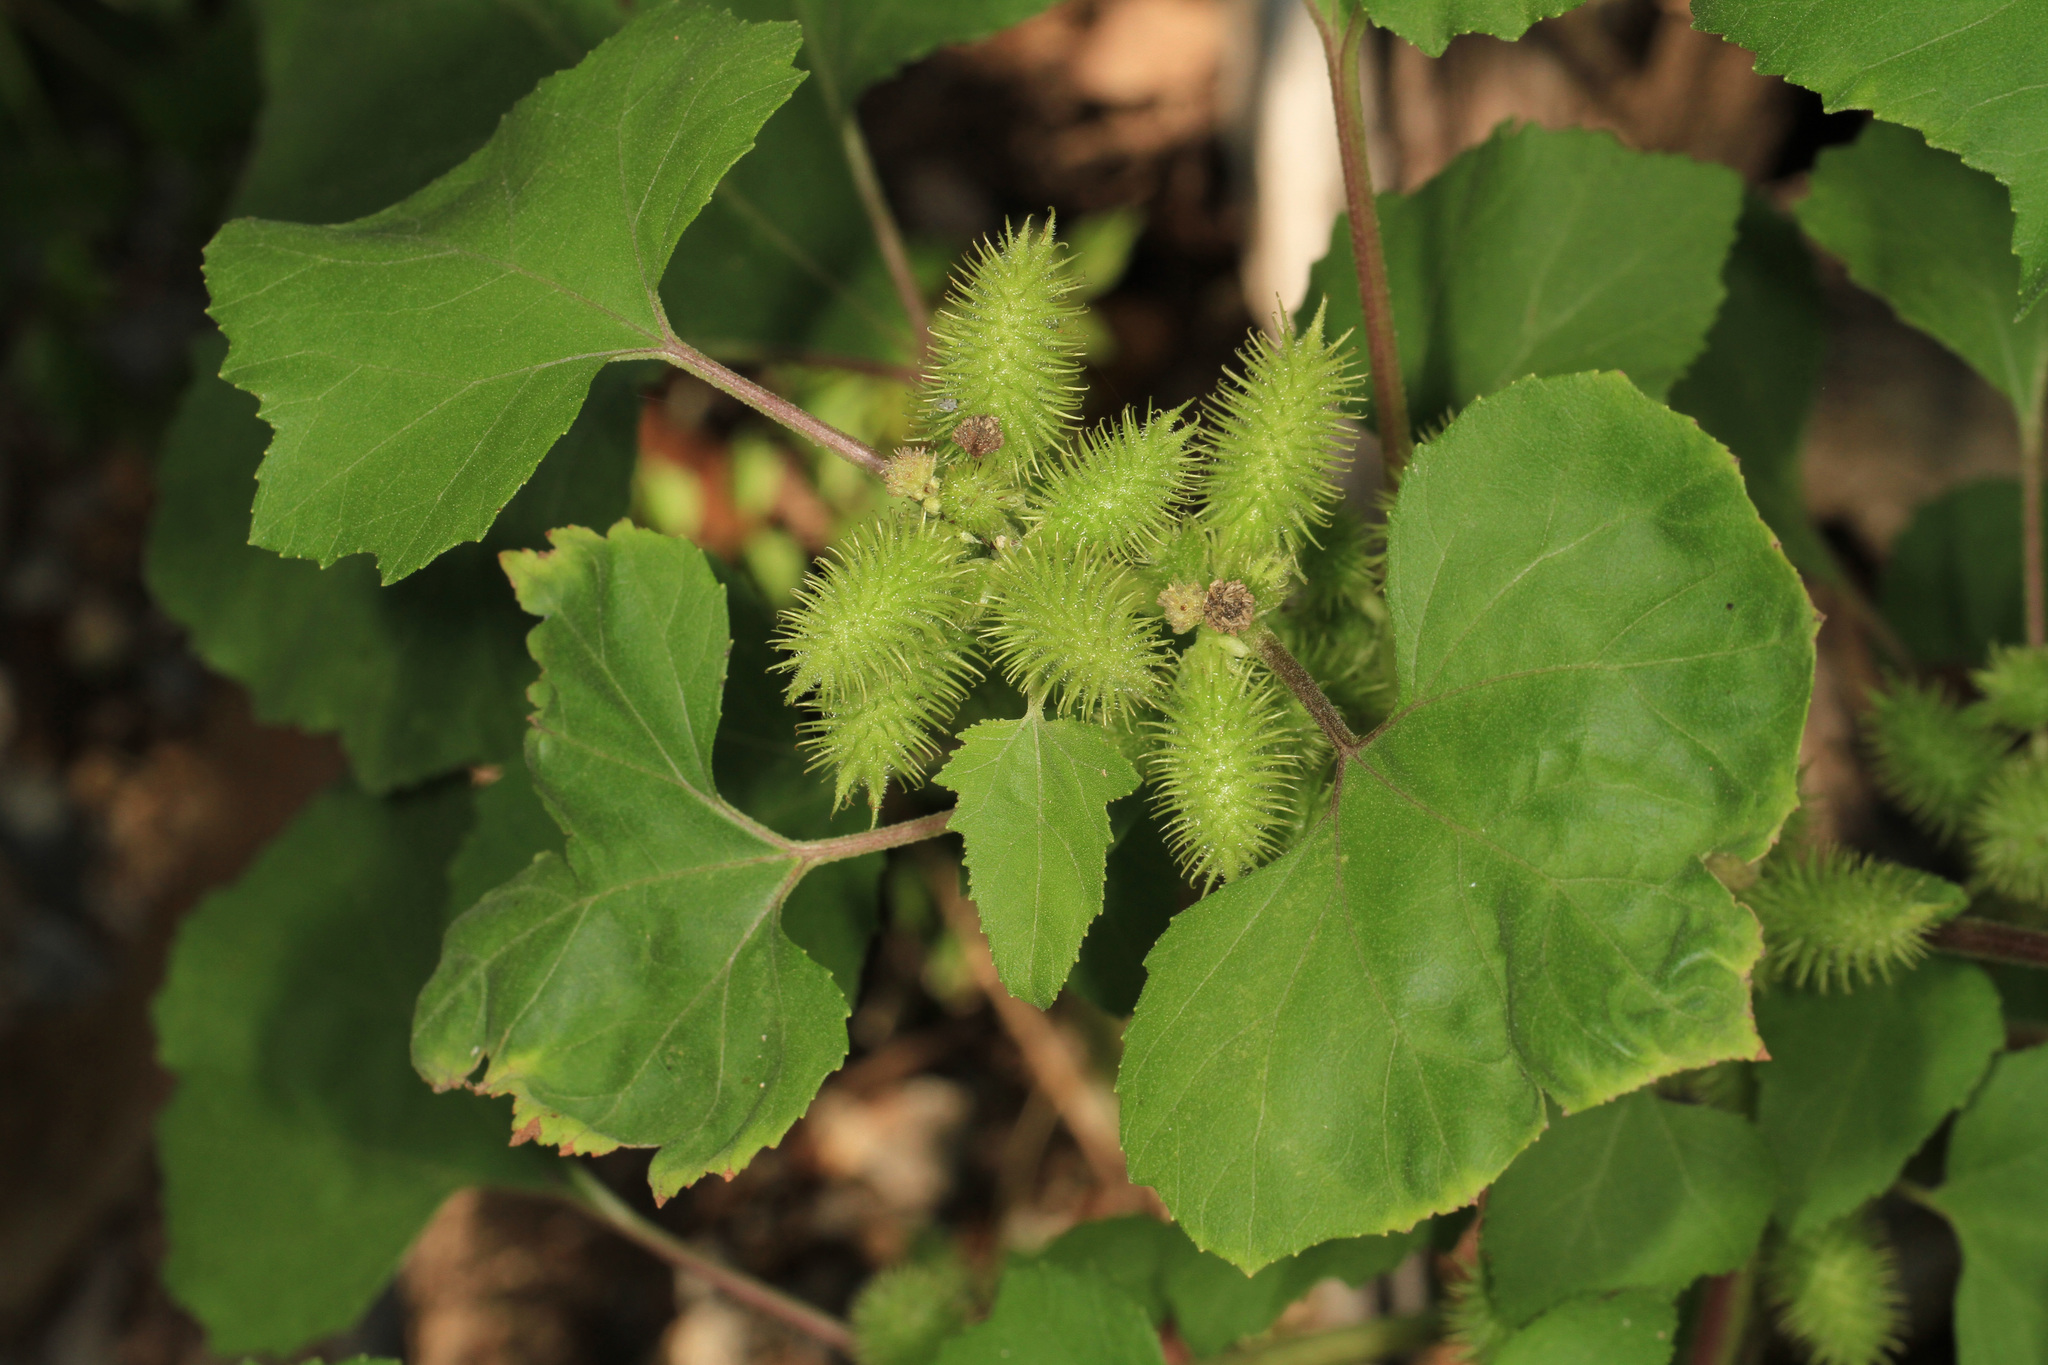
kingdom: Plantae
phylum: Tracheophyta
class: Magnoliopsida
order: Asterales
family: Asteraceae
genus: Xanthium
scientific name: Xanthium strumarium
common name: Rough cocklebur
